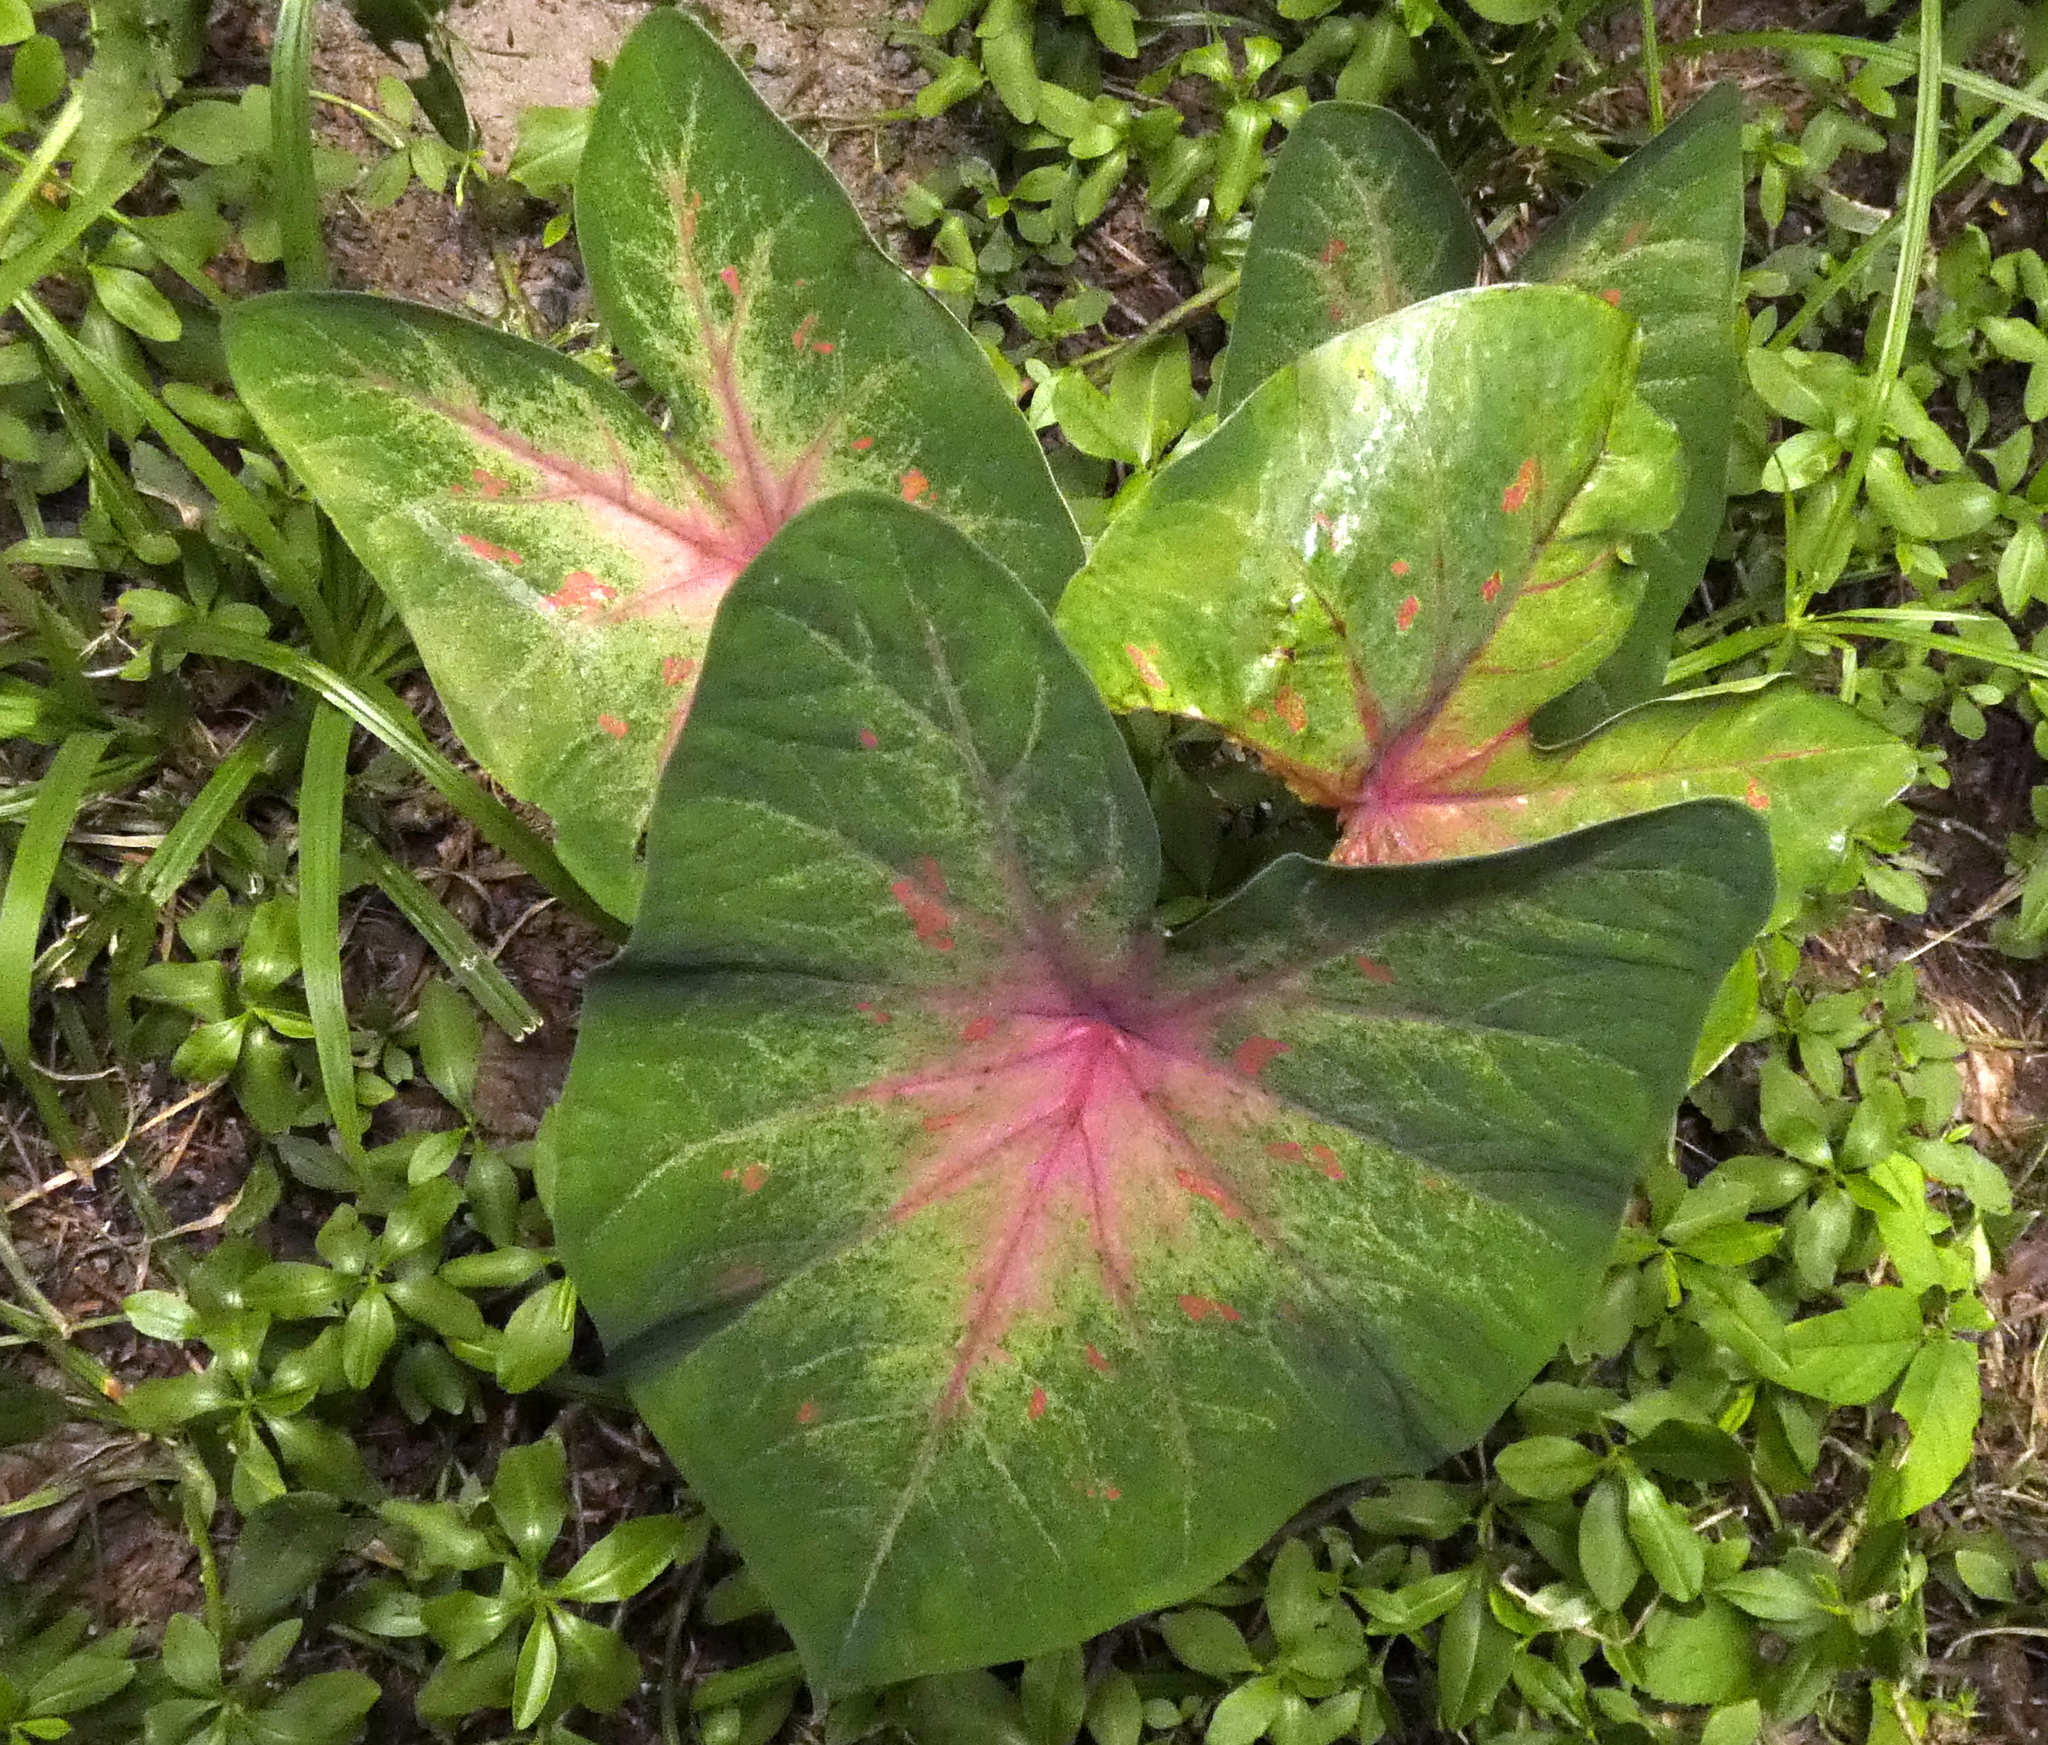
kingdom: Plantae
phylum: Tracheophyta
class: Liliopsida
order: Alismatales
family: Araceae
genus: Caladium
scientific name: Caladium bicolor
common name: Artist's pallet
